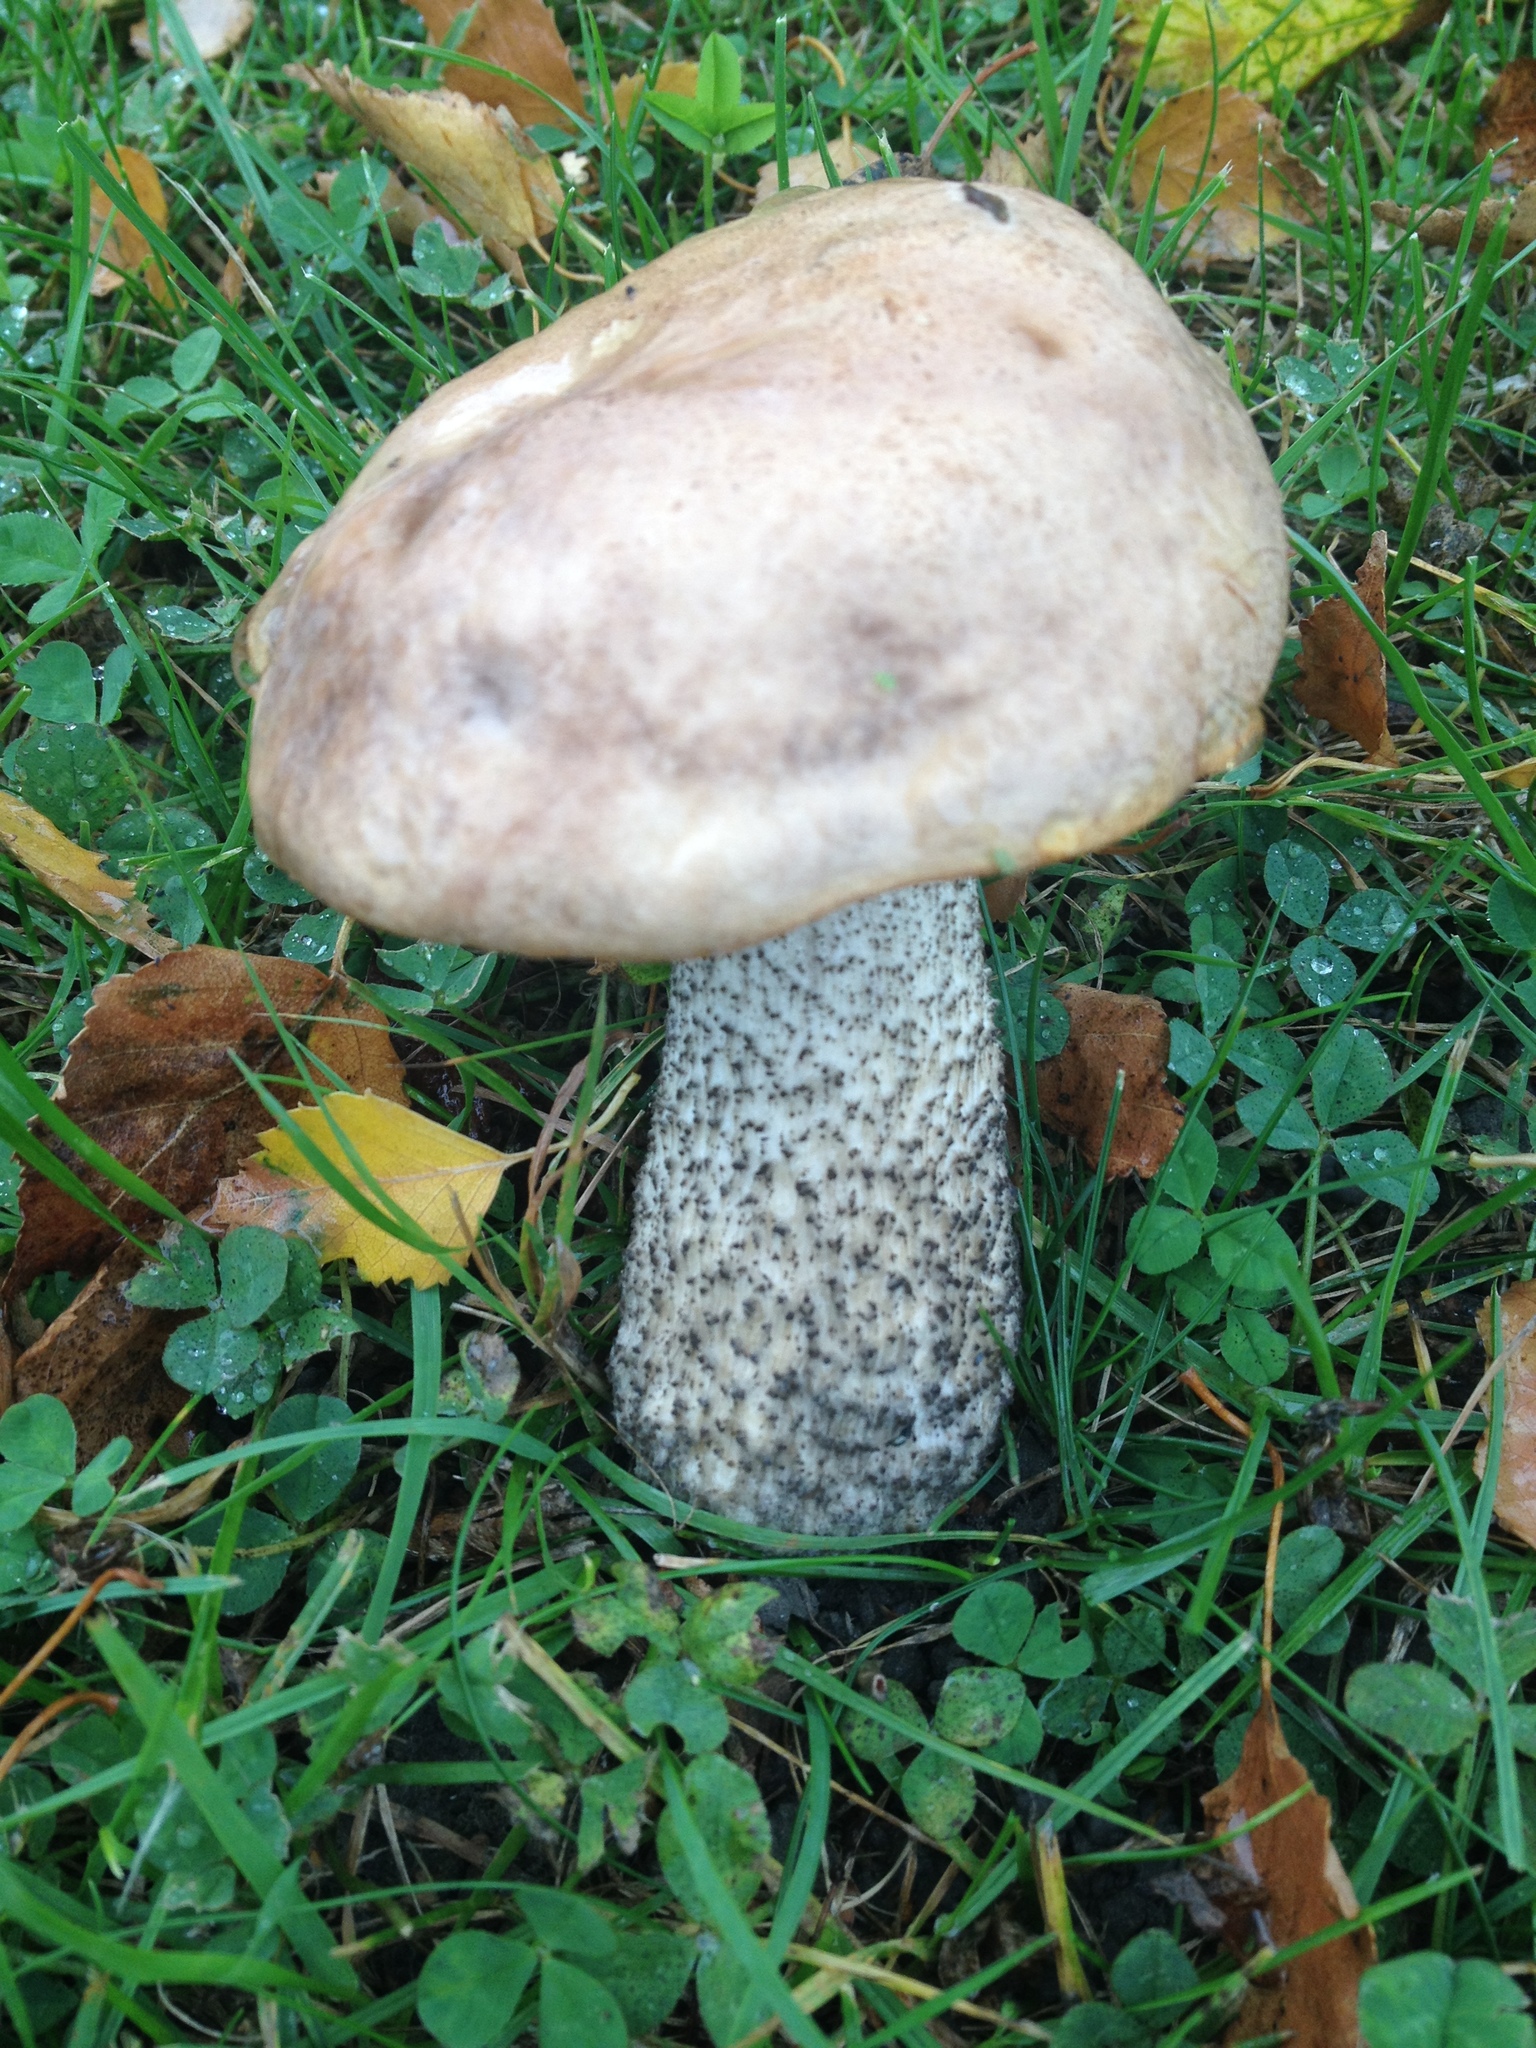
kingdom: Fungi
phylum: Basidiomycota
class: Agaricomycetes
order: Boletales
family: Boletaceae
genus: Leccinum
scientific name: Leccinum scabrum
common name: Blushing bolete
